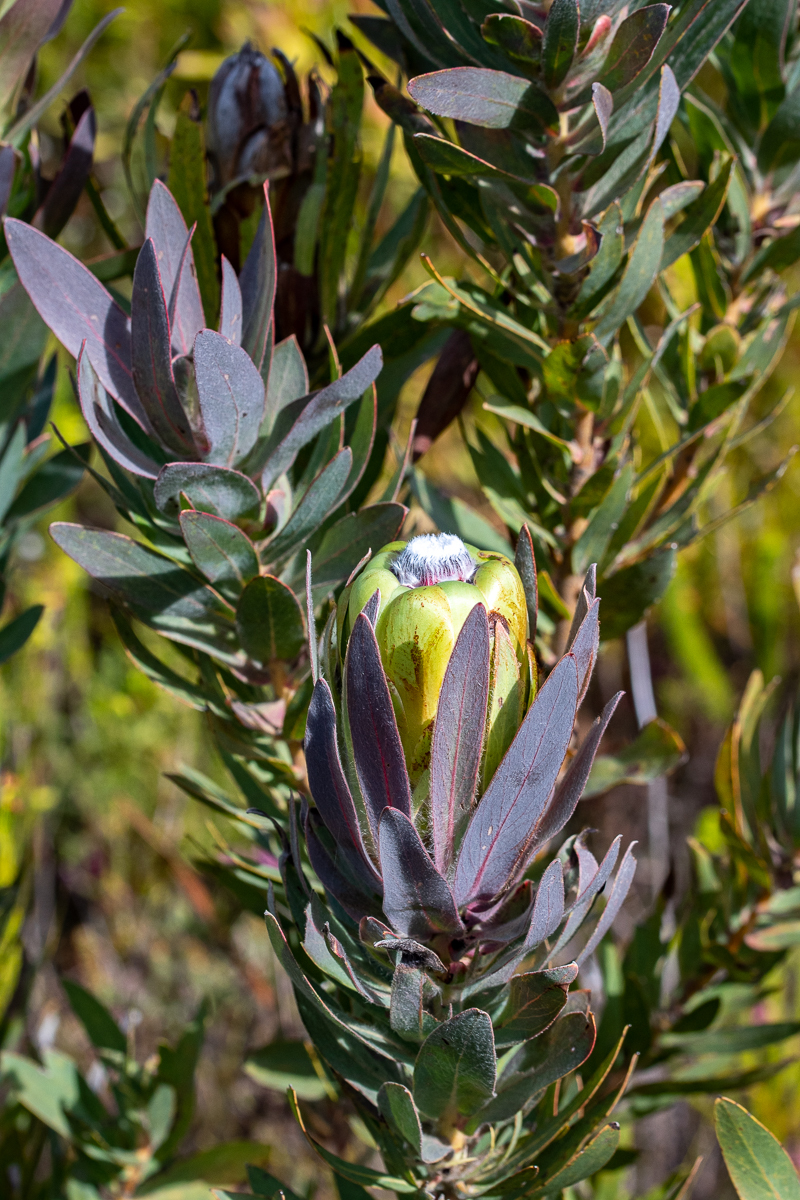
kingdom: Plantae
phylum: Tracheophyta
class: Magnoliopsida
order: Proteales
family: Proteaceae
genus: Protea
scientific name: Protea coronata
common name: Green sugarbush
